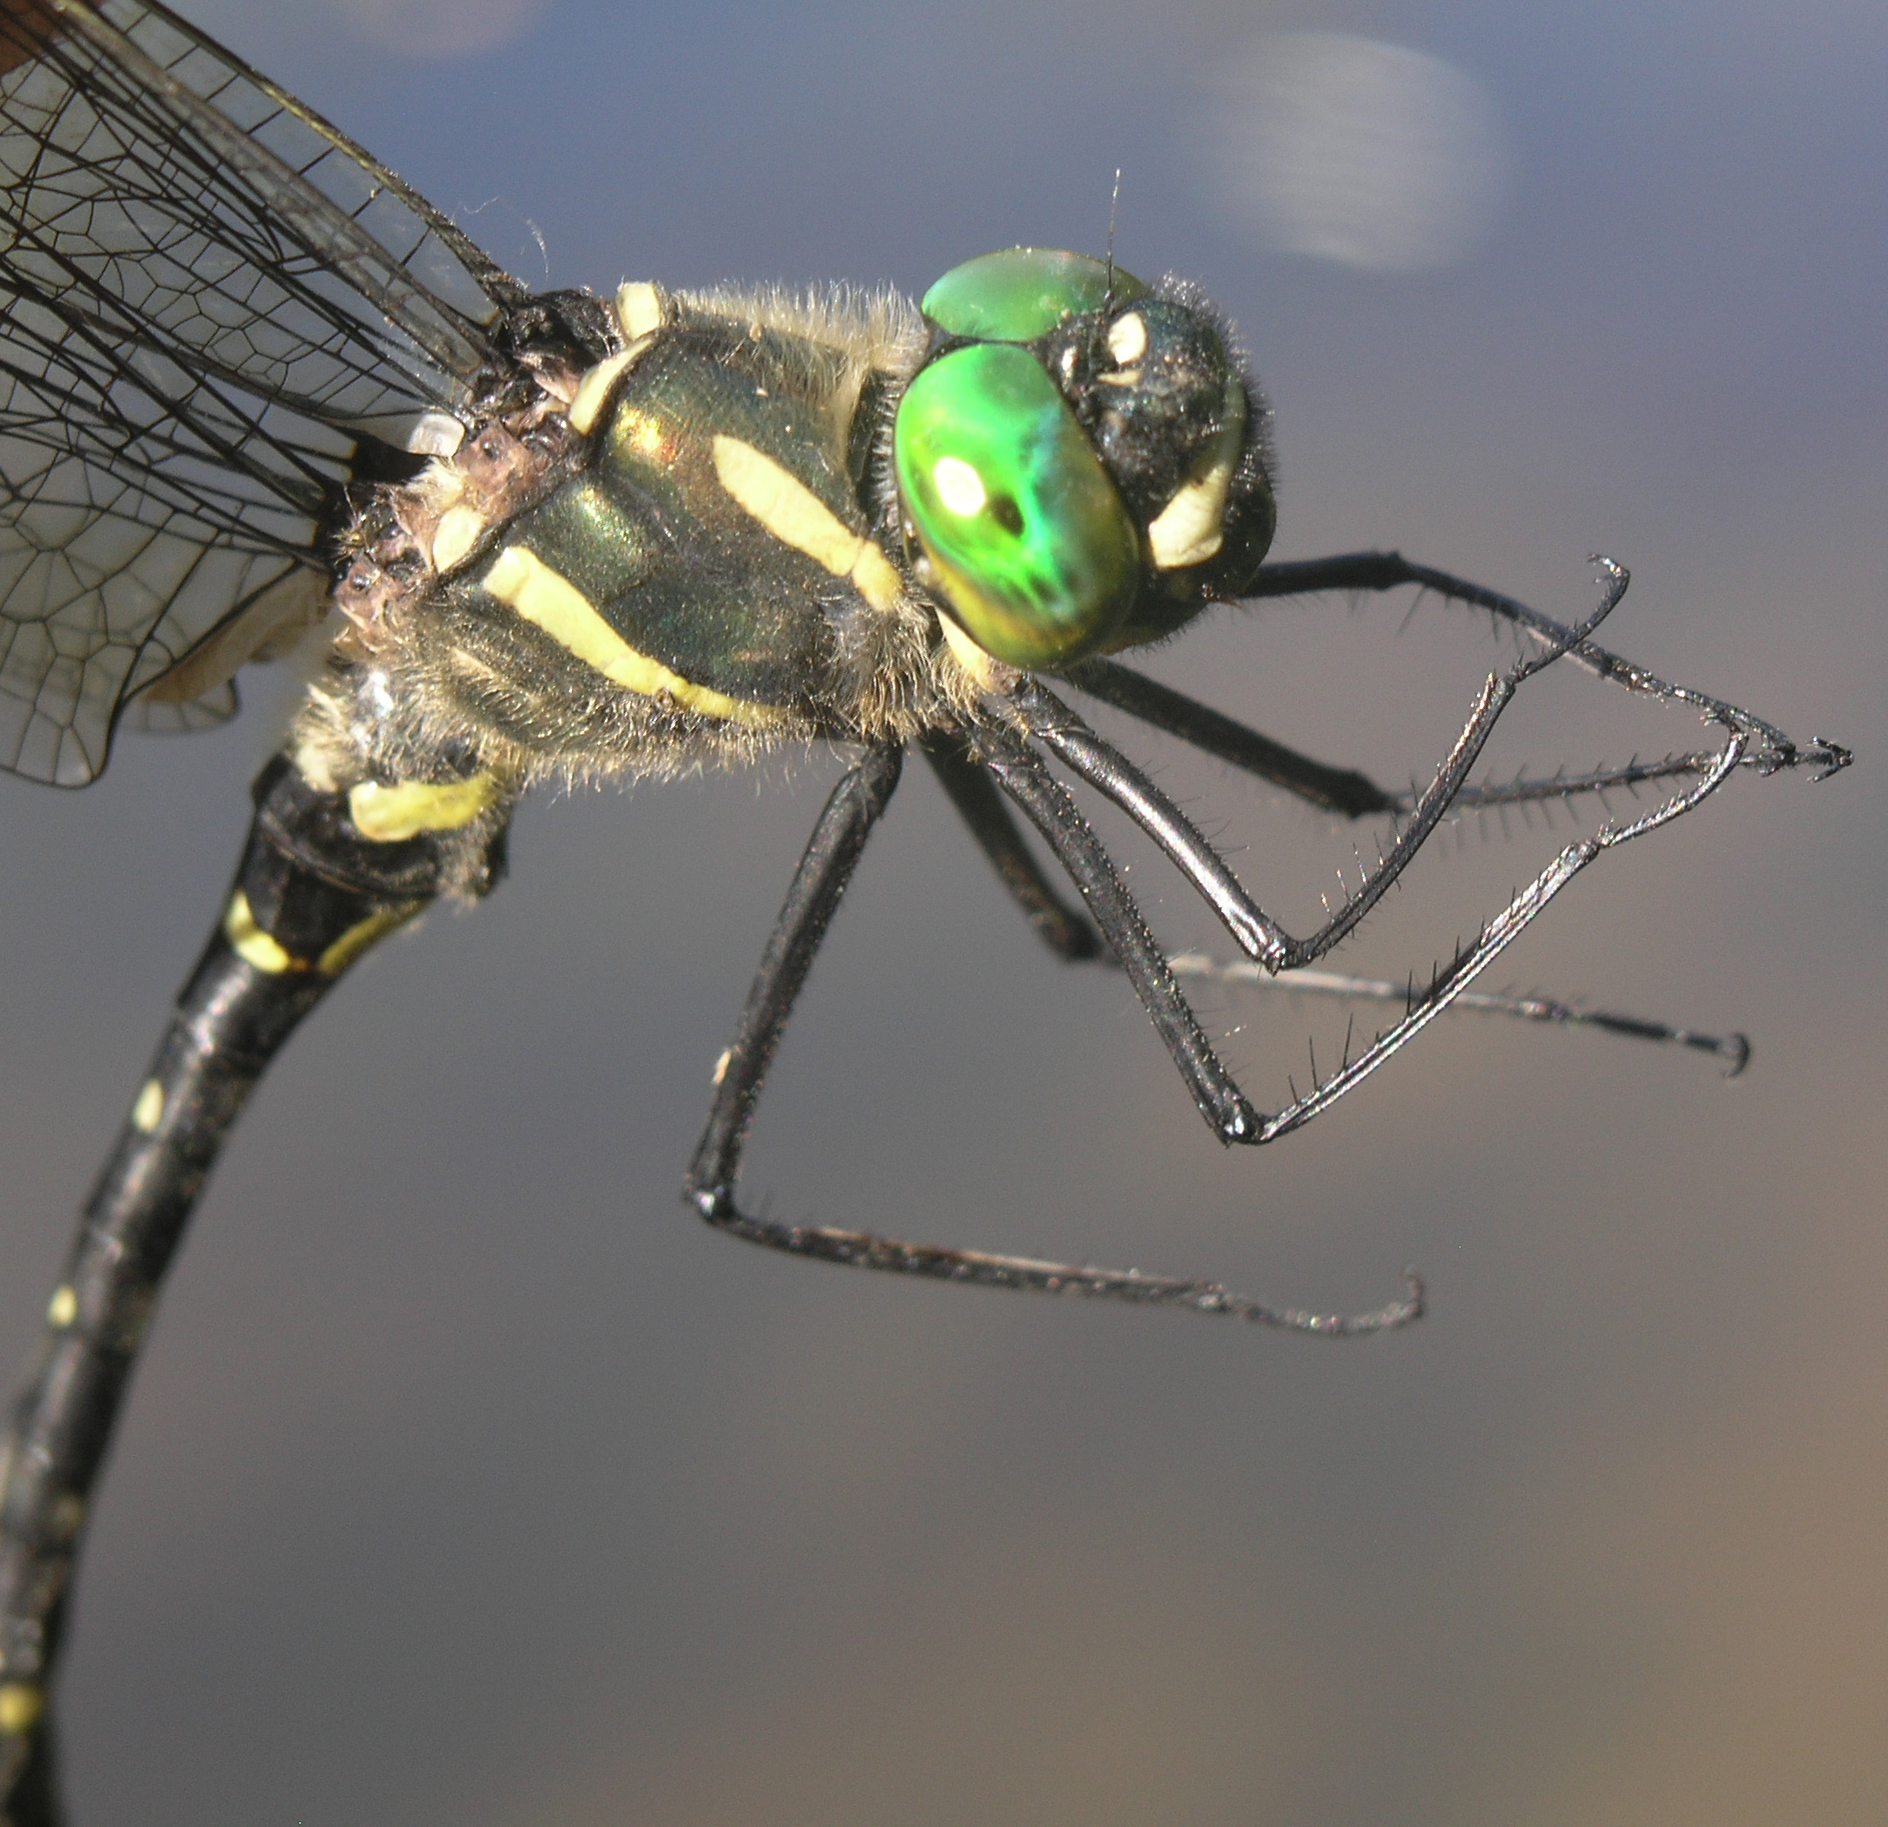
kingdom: Animalia
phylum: Arthropoda
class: Insecta
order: Odonata
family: Macromiidae
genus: Macromia
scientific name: Macromia amphigena
